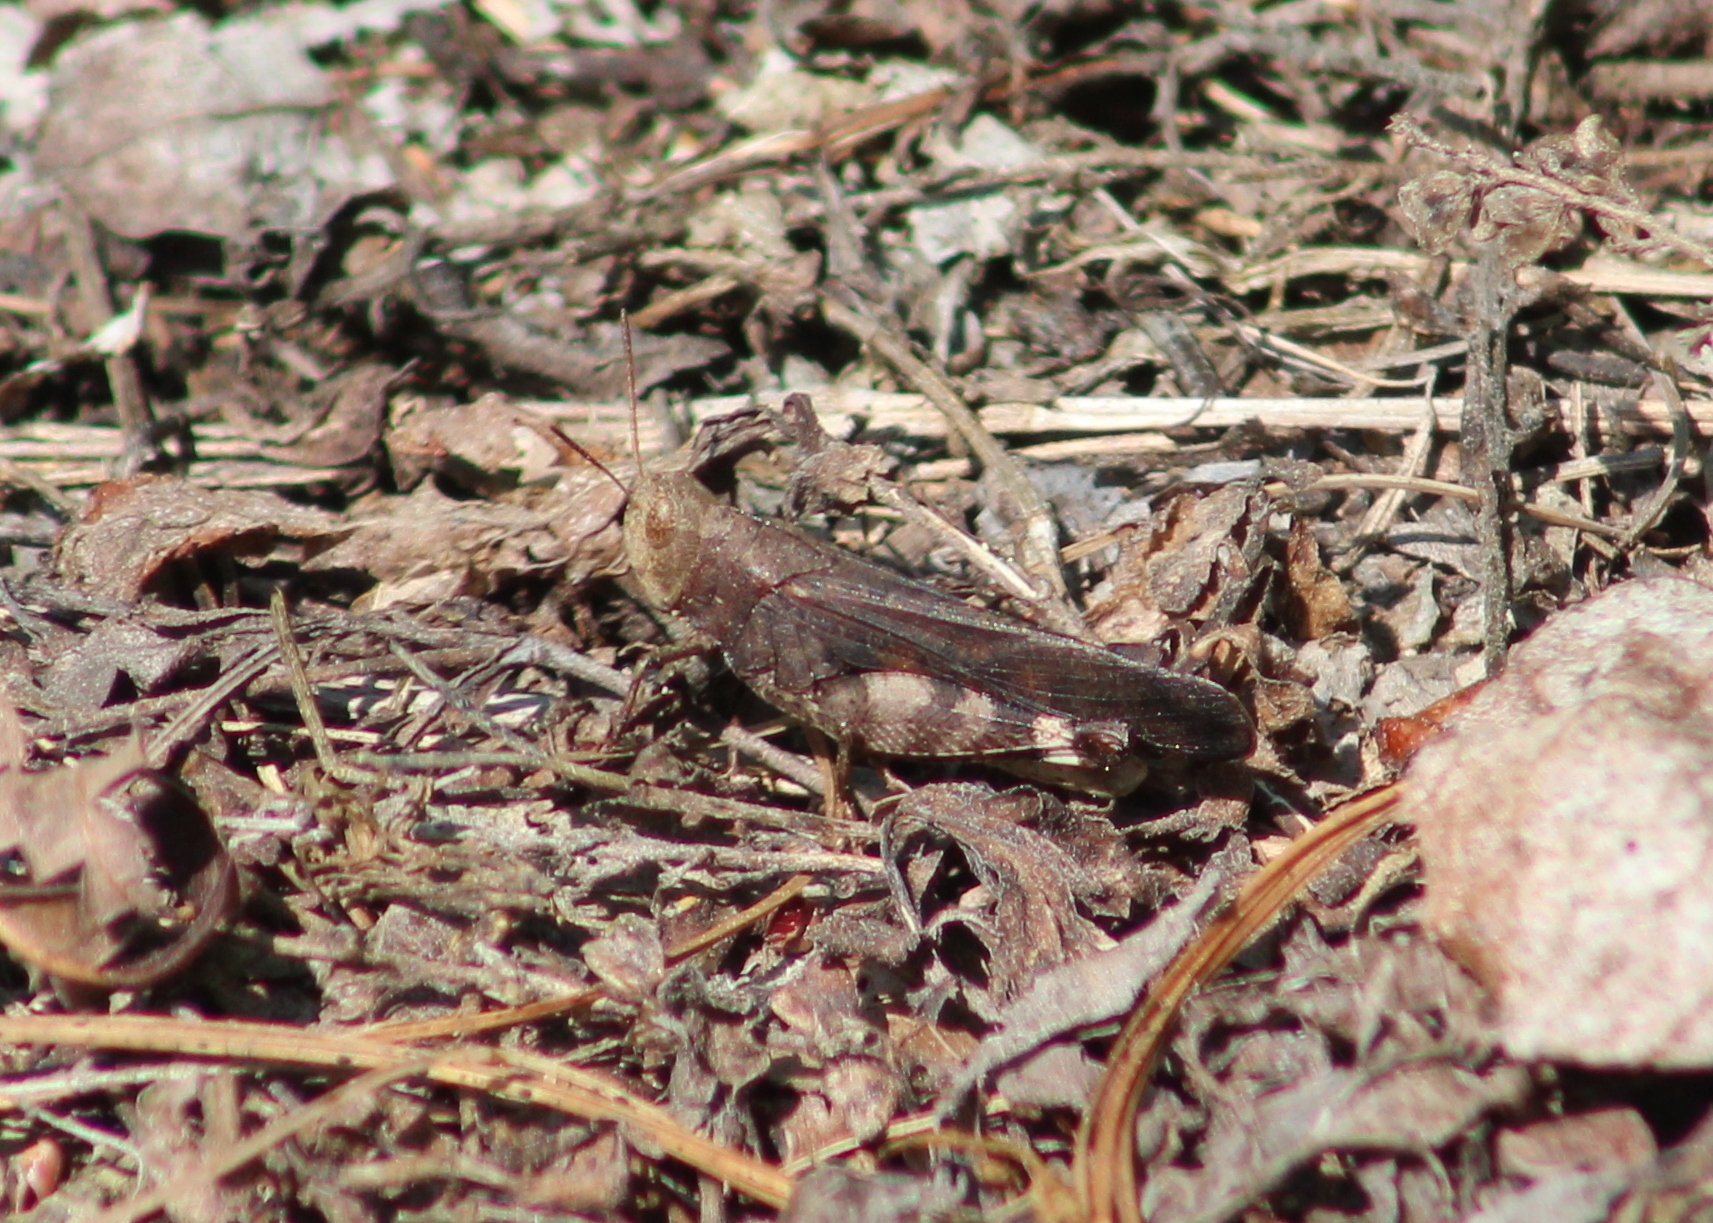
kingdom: Animalia
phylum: Arthropoda
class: Insecta
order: Orthoptera
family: Acrididae
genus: Arphia
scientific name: Arphia sulphurea
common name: Spring yellow-winged locust
